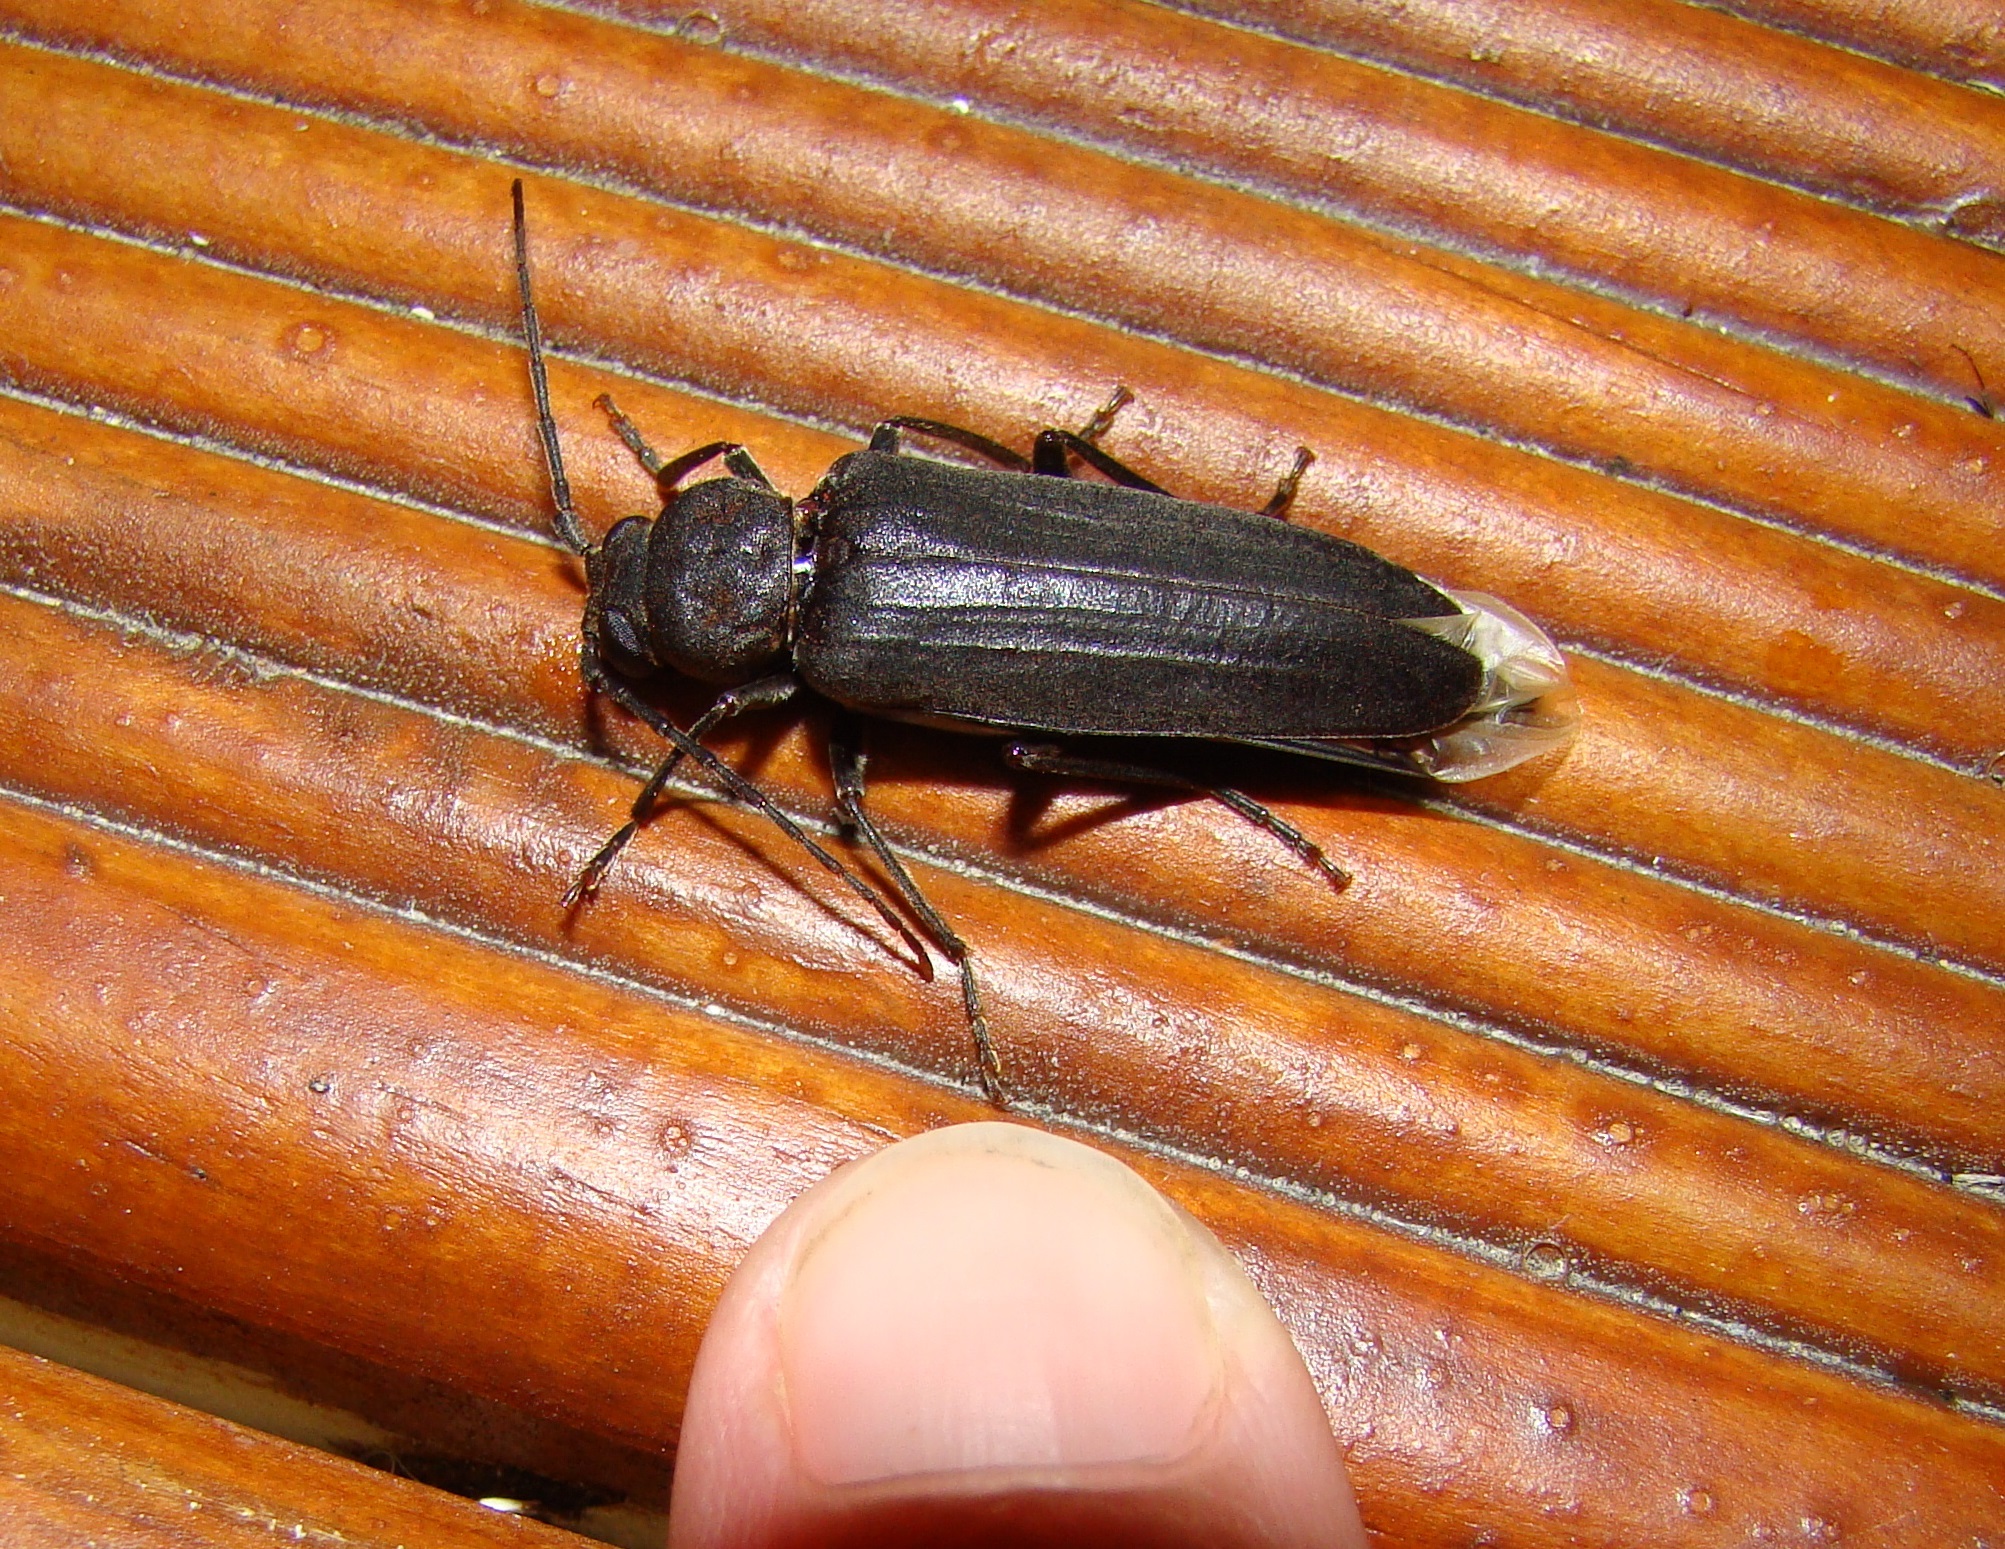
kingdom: Animalia
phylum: Arthropoda
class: Insecta
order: Coleoptera
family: Cerambycidae
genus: Arhopalus
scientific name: Arhopalus ferus
